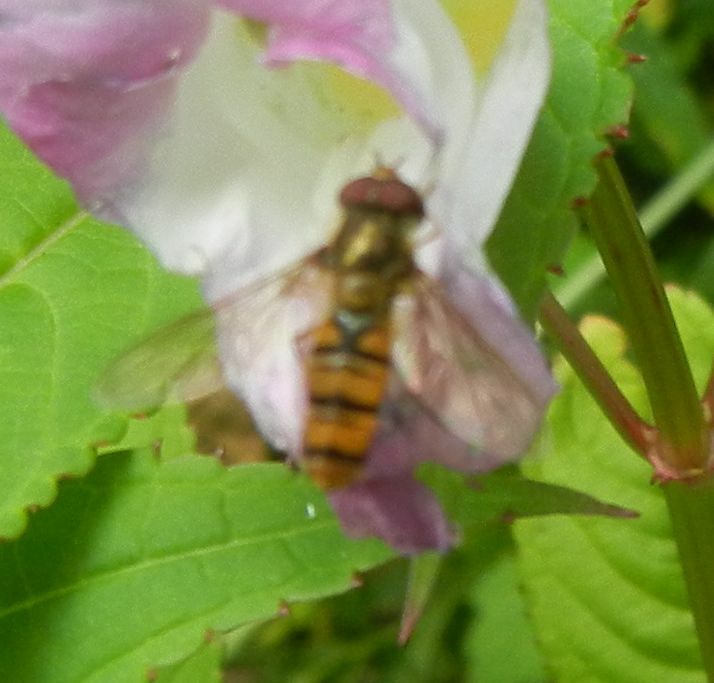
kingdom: Animalia
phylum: Arthropoda
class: Insecta
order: Diptera
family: Syrphidae
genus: Episyrphus
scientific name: Episyrphus balteatus
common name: Marmalade hoverfly
